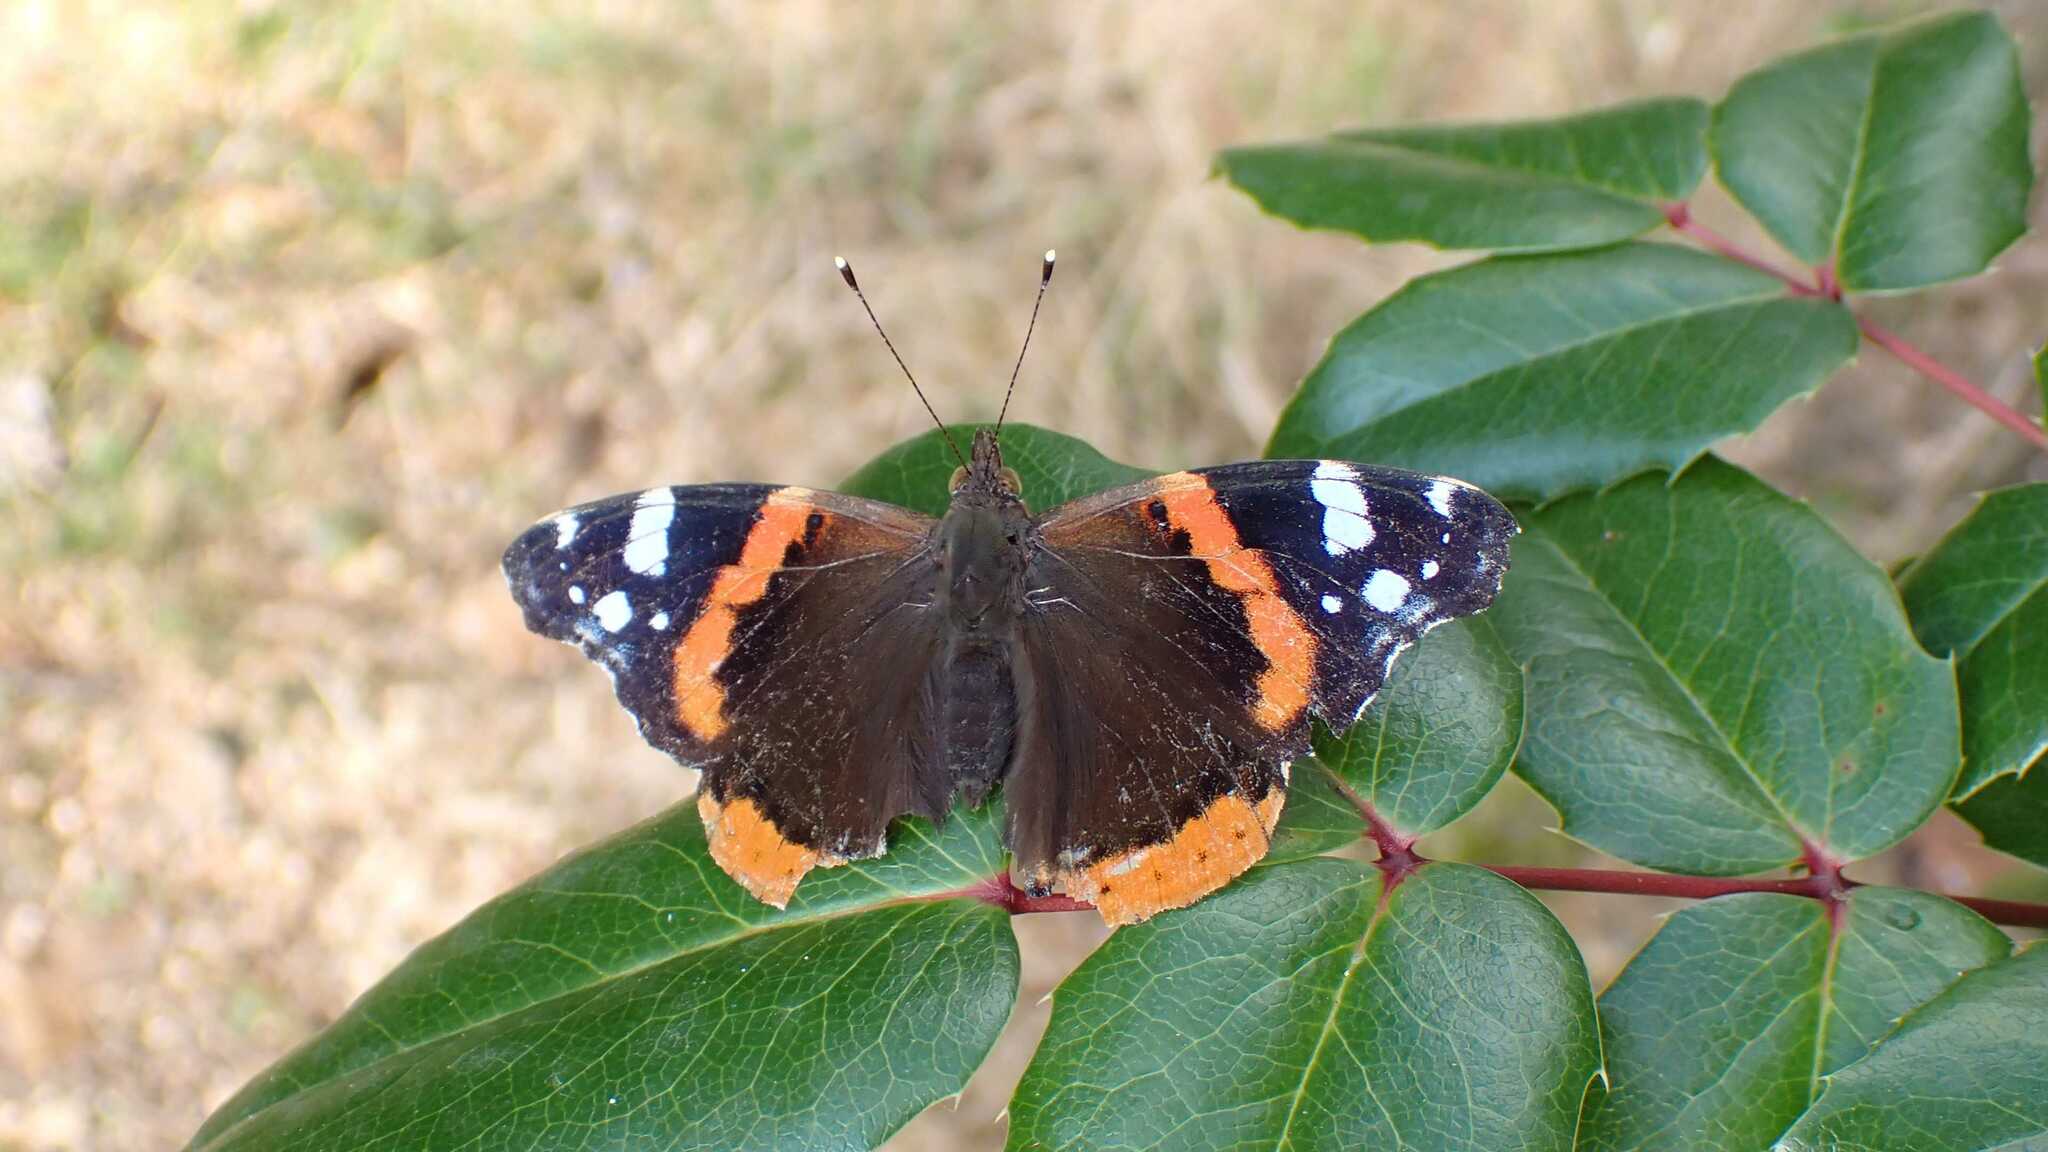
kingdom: Animalia
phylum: Arthropoda
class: Insecta
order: Lepidoptera
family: Nymphalidae
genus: Vanessa
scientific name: Vanessa atalanta
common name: Red admiral
